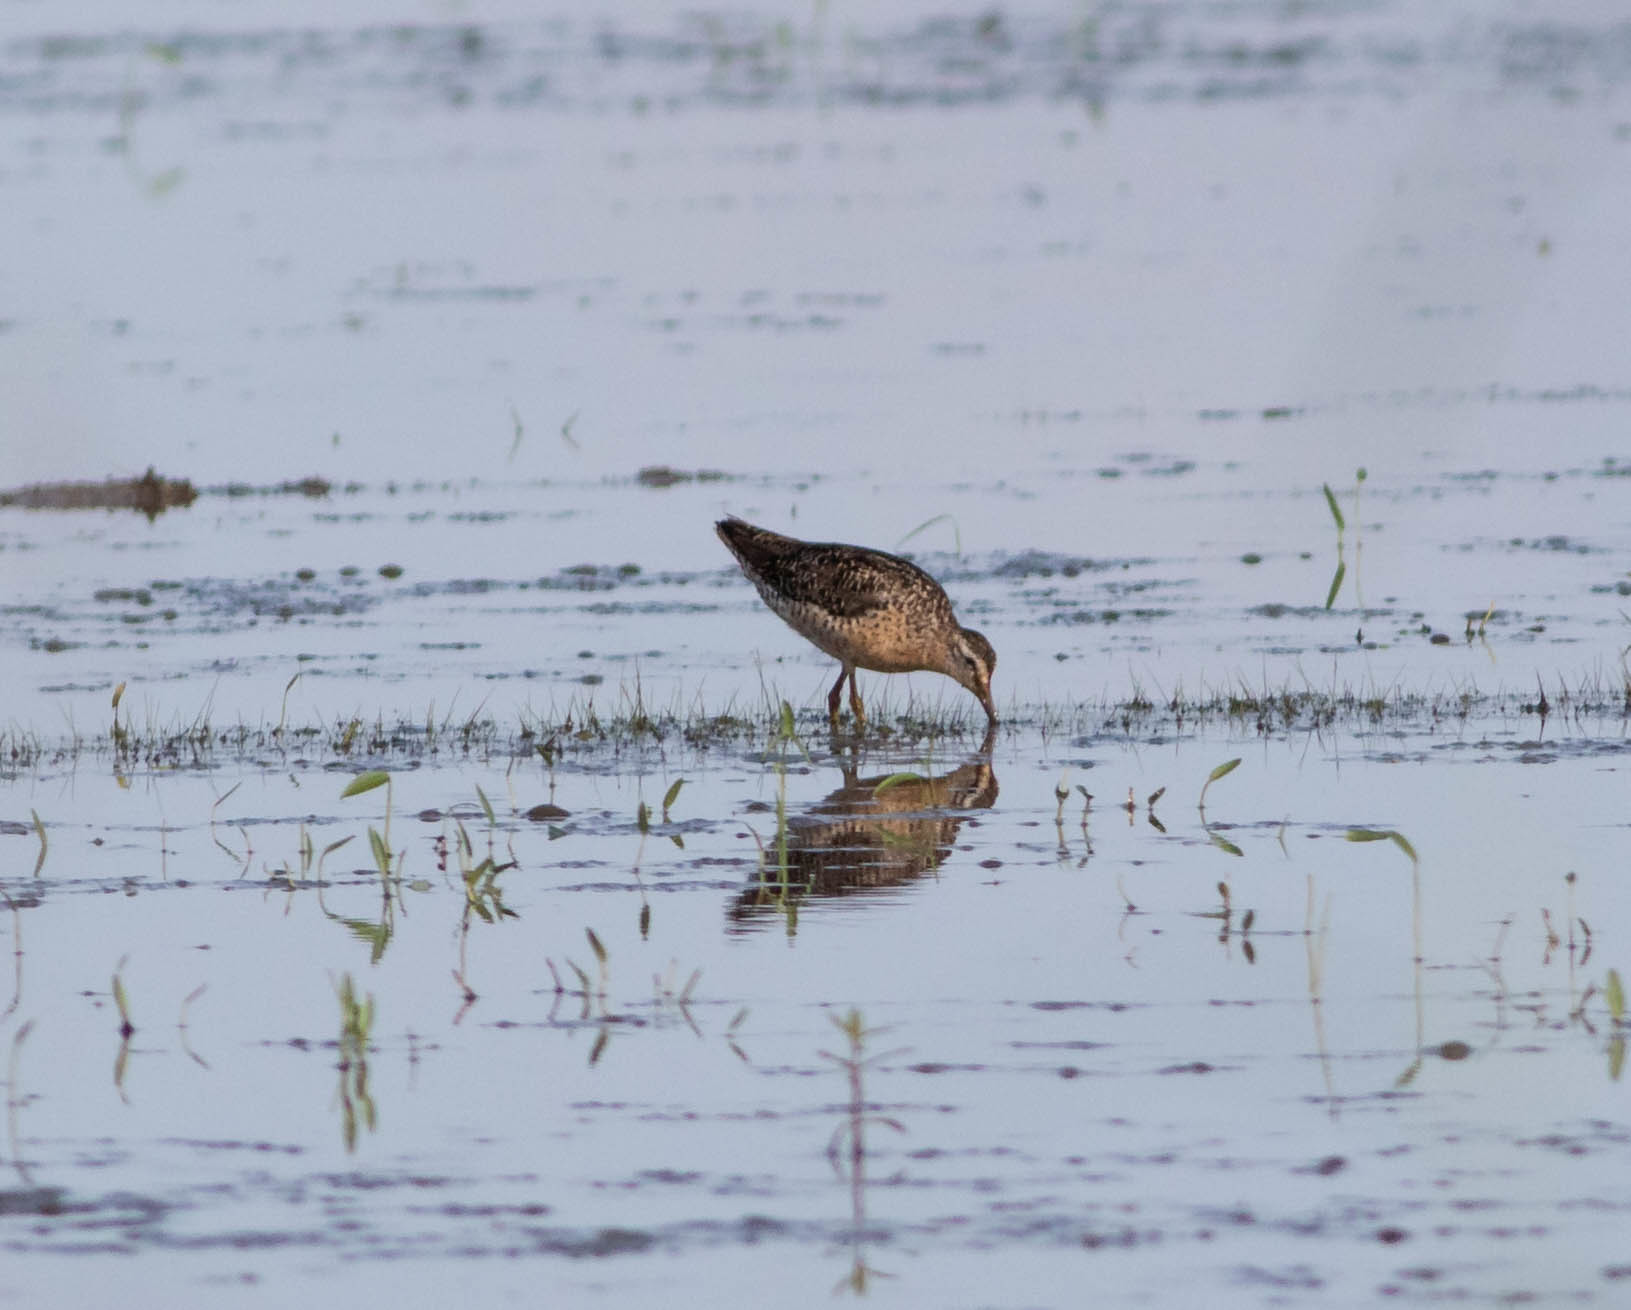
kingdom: Animalia
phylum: Chordata
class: Aves
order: Charadriiformes
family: Scolopacidae
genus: Limnodromus
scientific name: Limnodromus griseus
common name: Short-billed dowitcher
